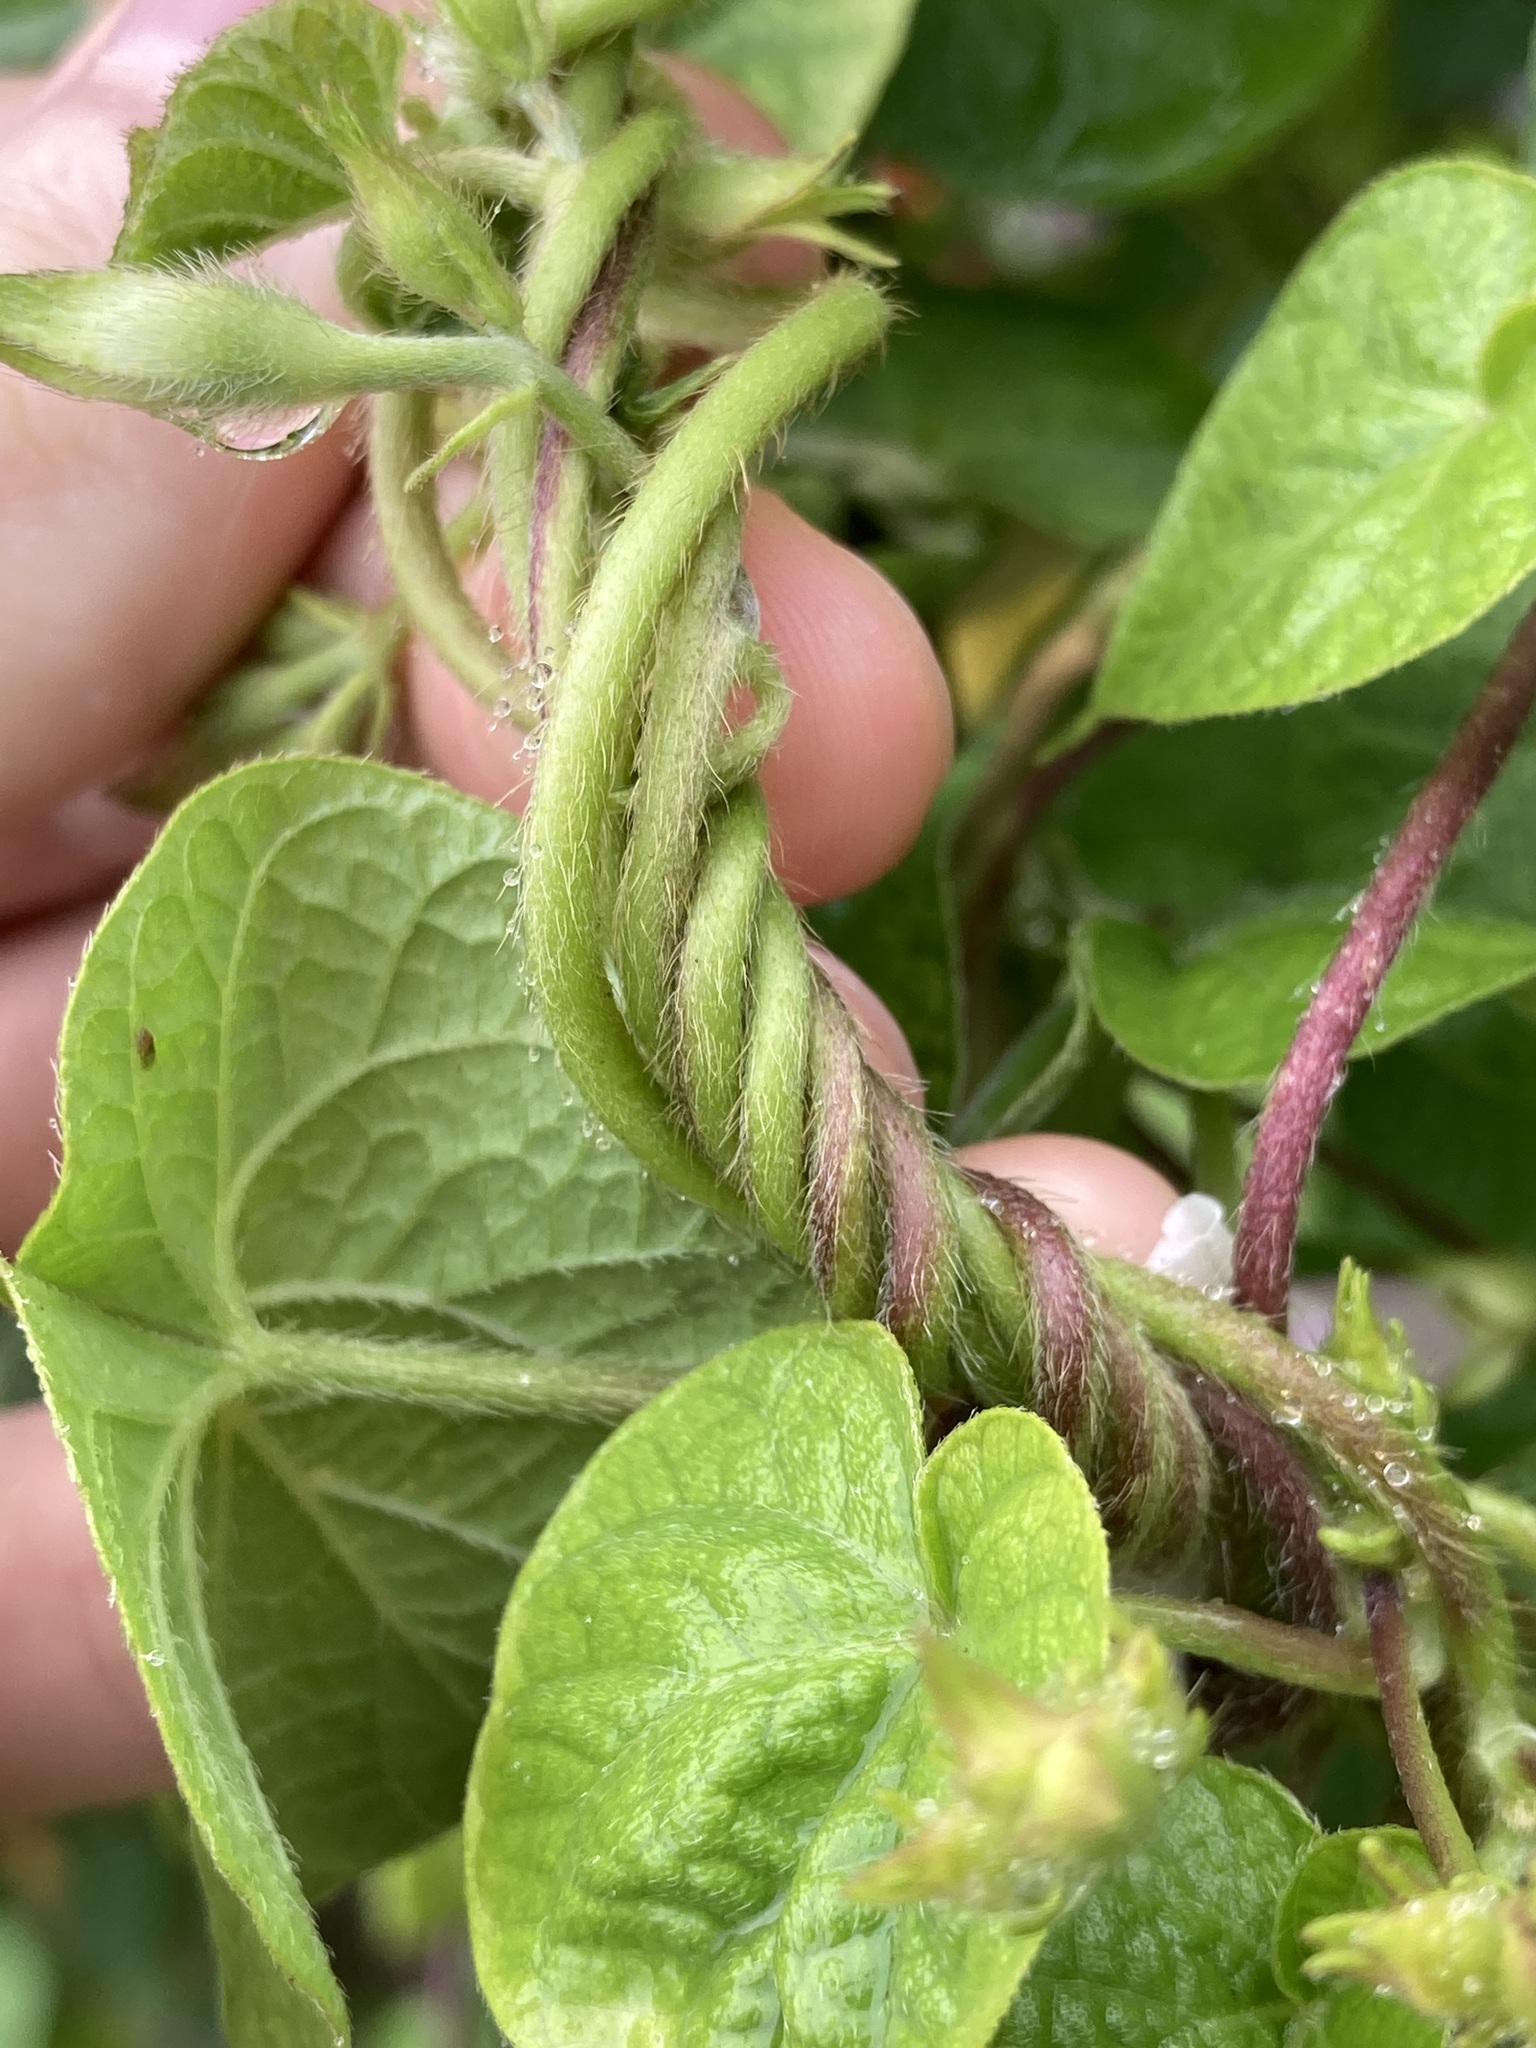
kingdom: Plantae
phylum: Tracheophyta
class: Magnoliopsida
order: Solanales
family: Convolvulaceae
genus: Ipomoea
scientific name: Ipomoea purpurea
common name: Common morning-glory
